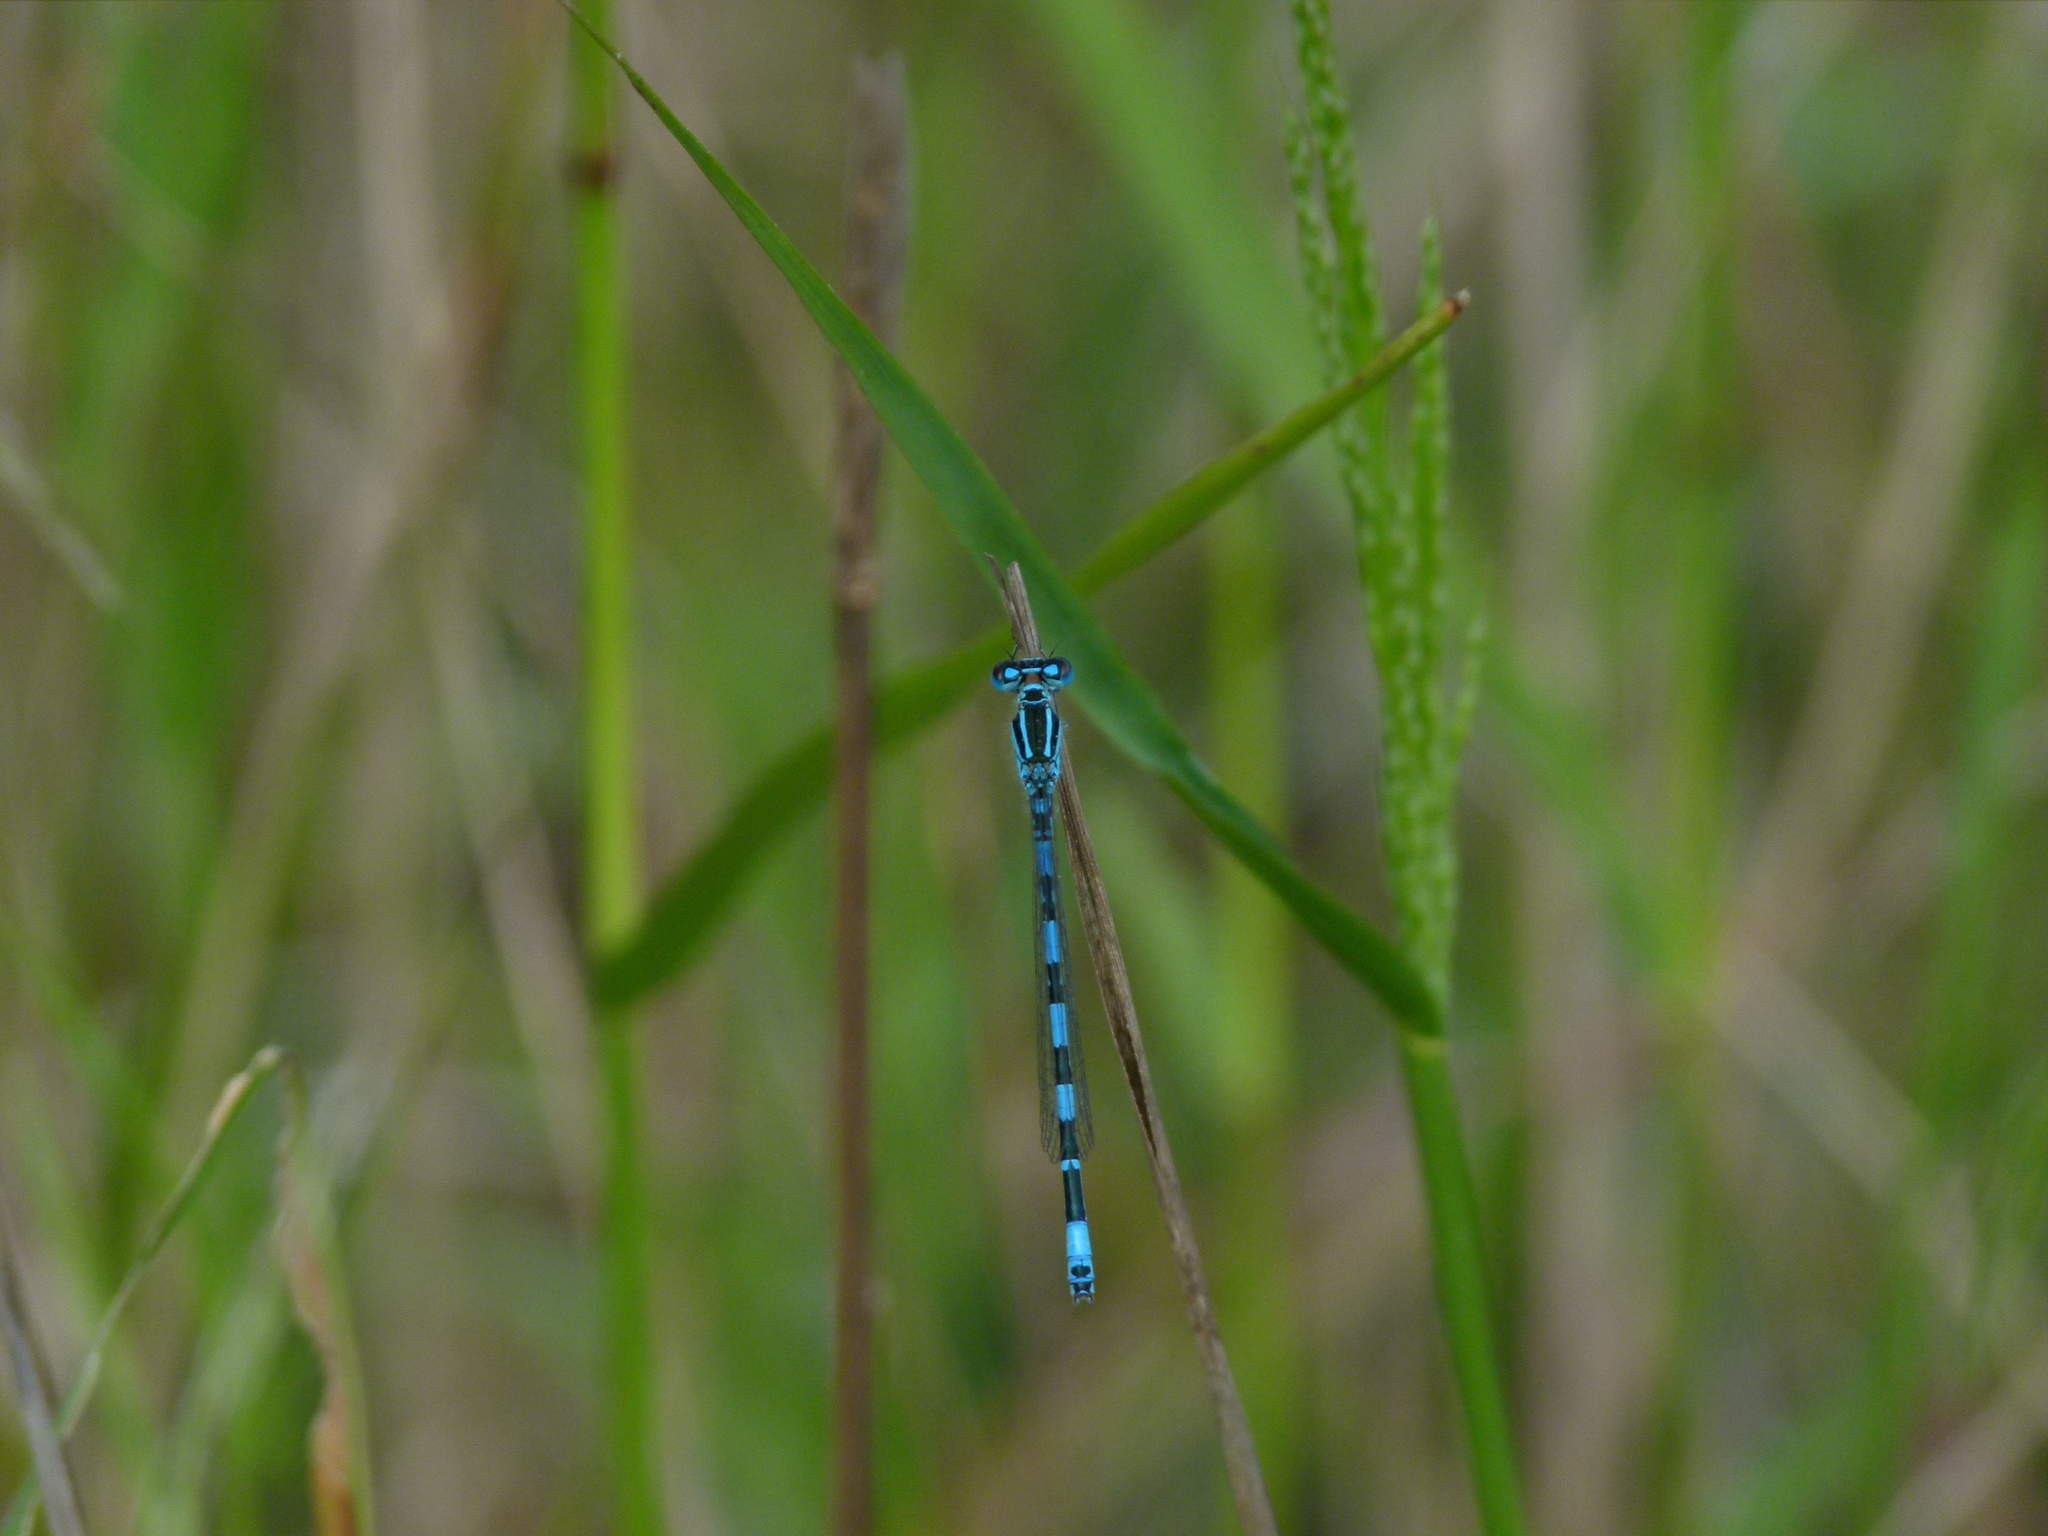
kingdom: Animalia
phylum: Arthropoda
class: Insecta
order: Odonata
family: Coenagrionidae
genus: Coenagrion
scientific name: Coenagrion mercuriale
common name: Southern damselfly
